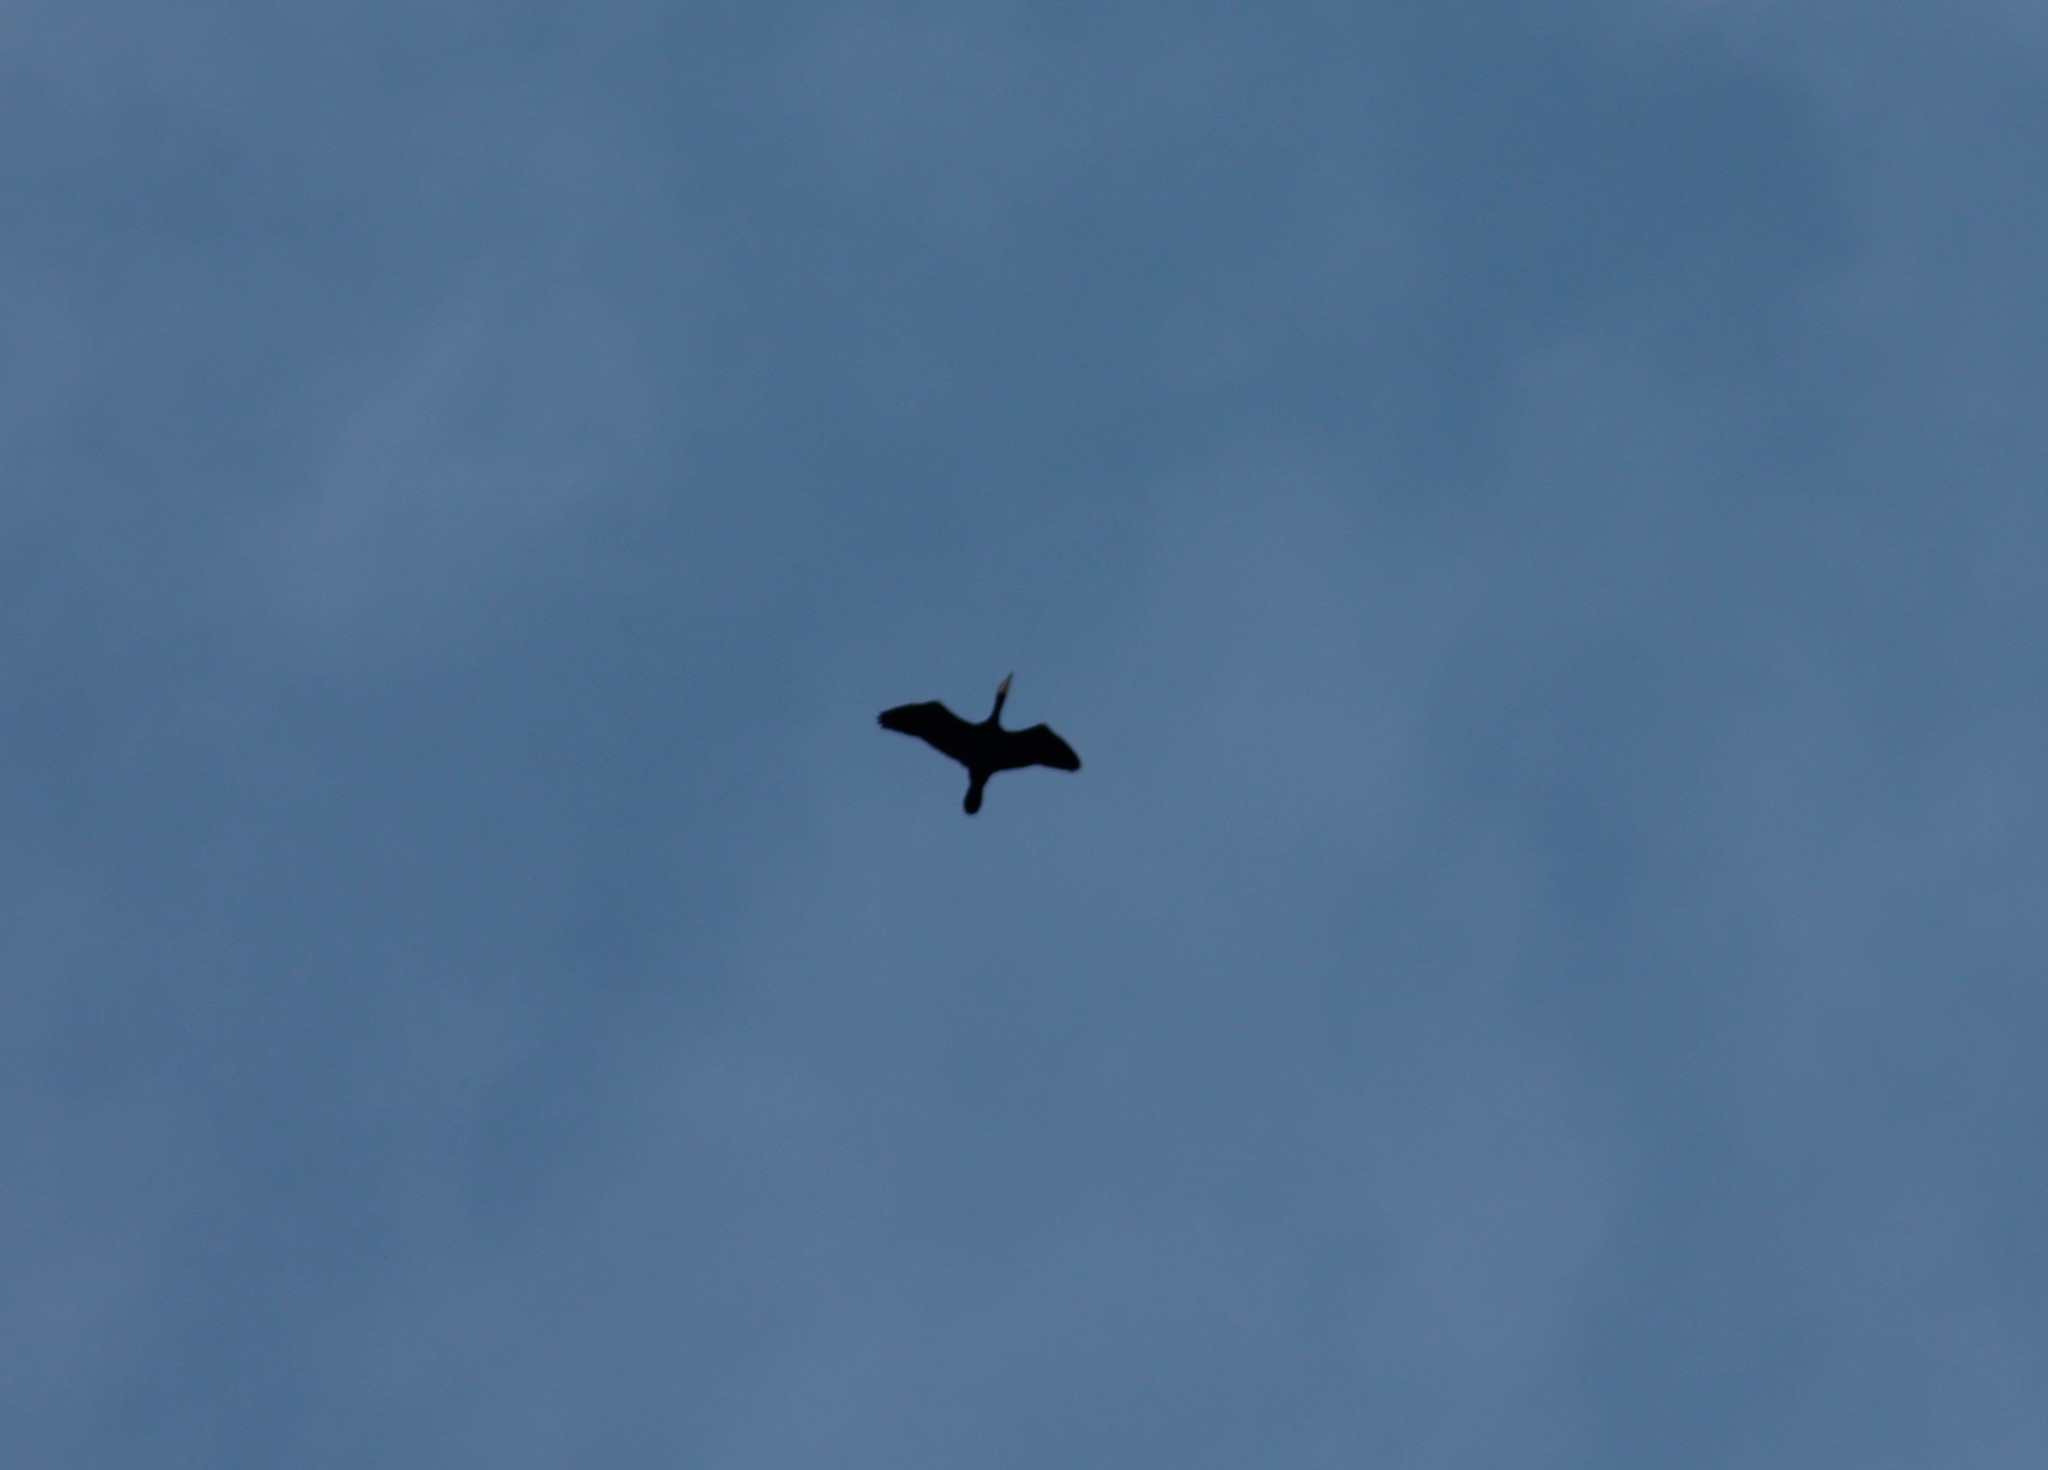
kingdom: Animalia
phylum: Chordata
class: Aves
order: Suliformes
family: Phalacrocoracidae
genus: Phalacrocorax
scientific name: Phalacrocorax carbo
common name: Great cormorant
